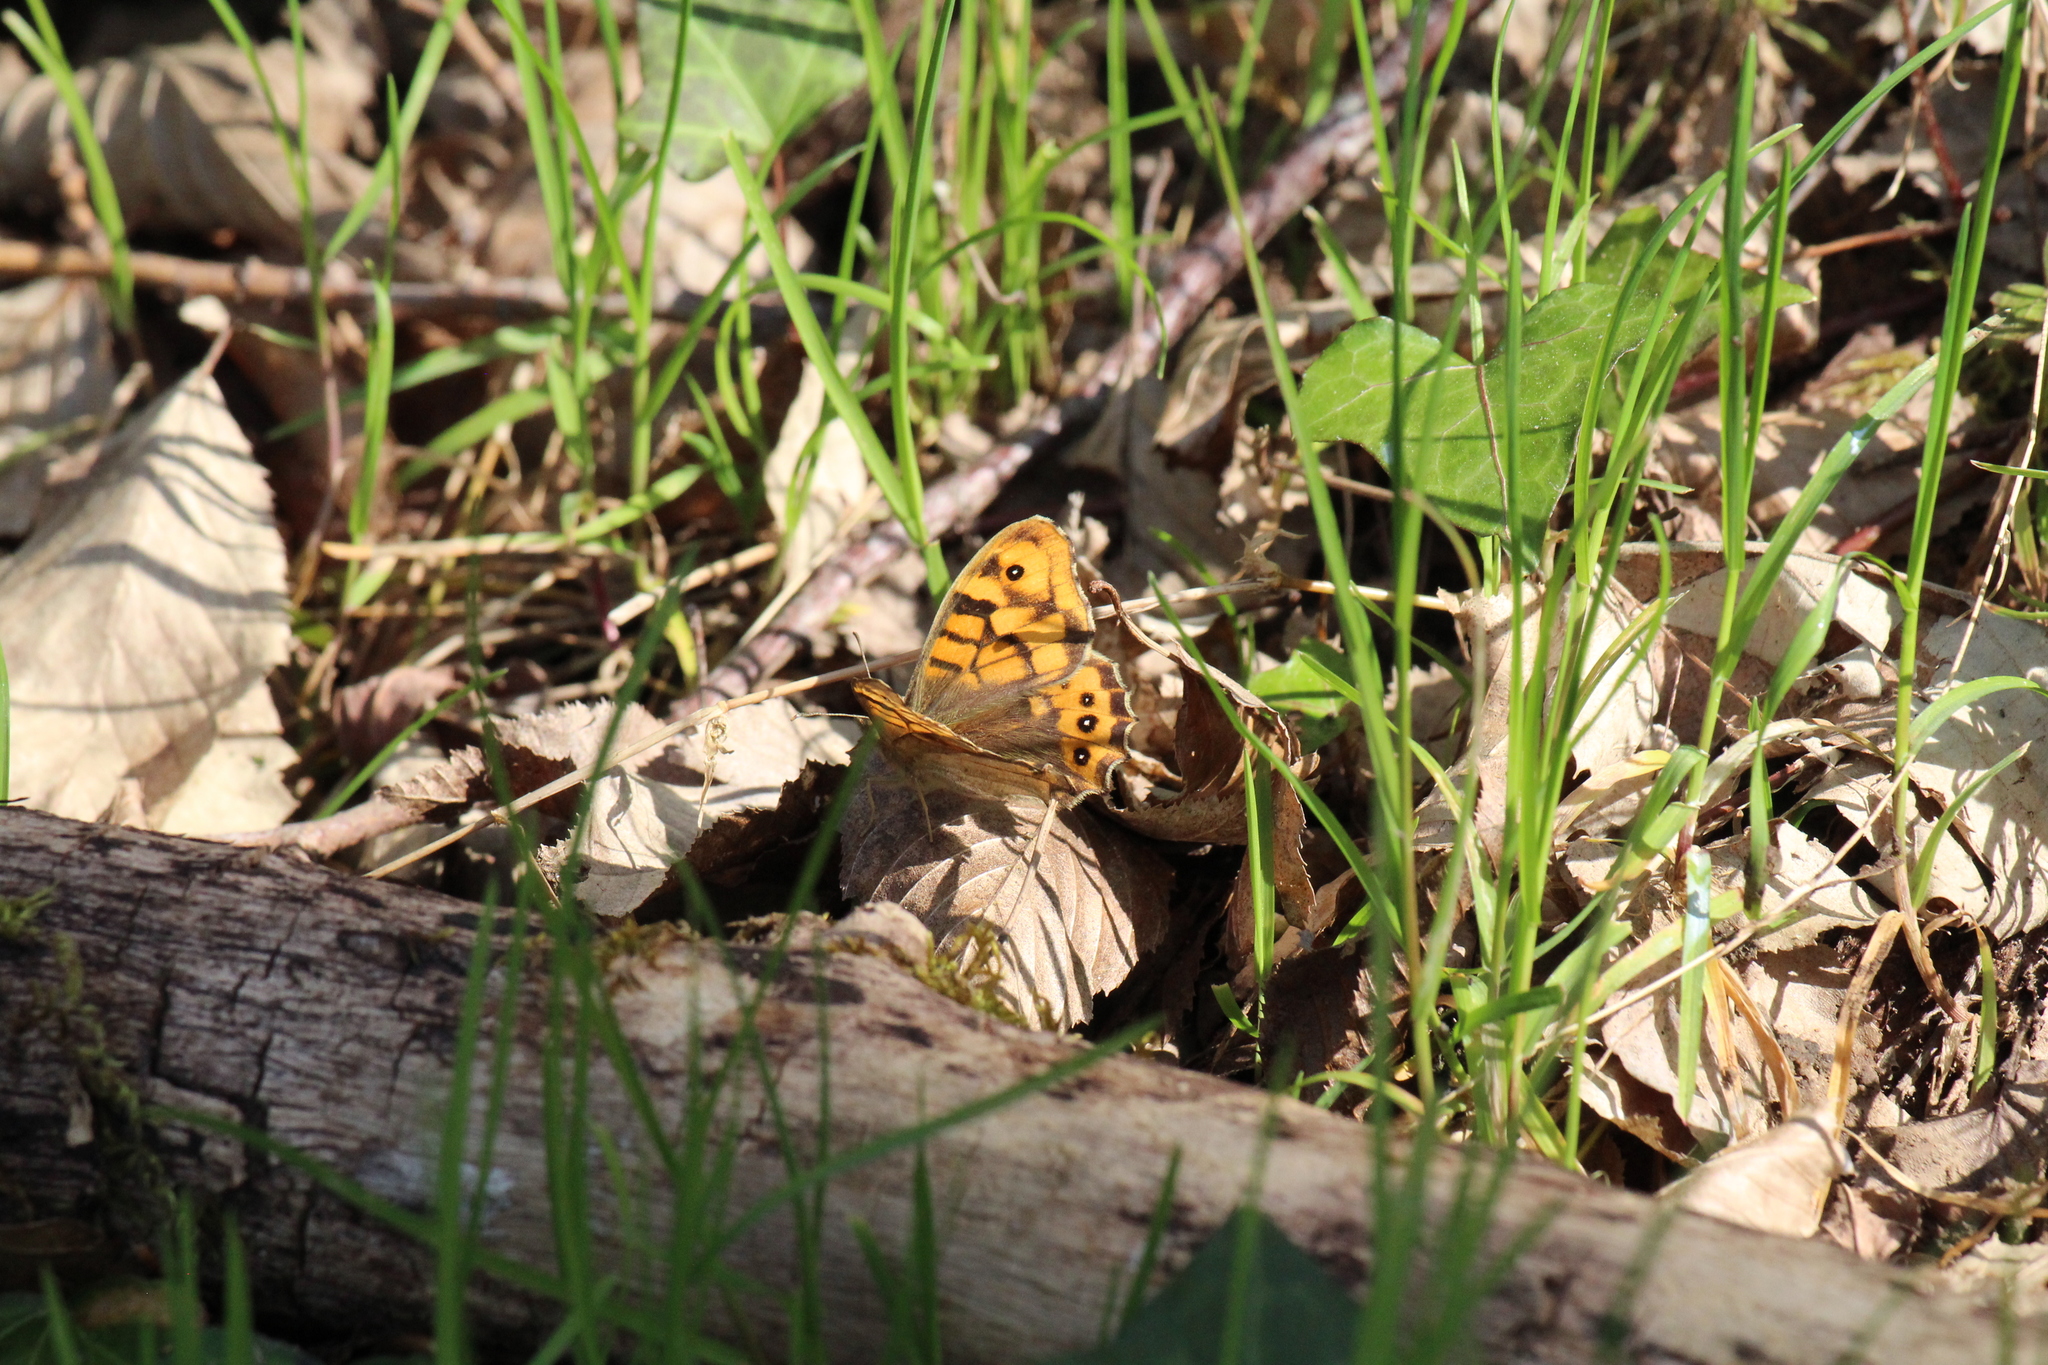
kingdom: Animalia
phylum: Arthropoda
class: Insecta
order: Lepidoptera
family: Nymphalidae
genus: Pararge
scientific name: Pararge Lasiommata megera
